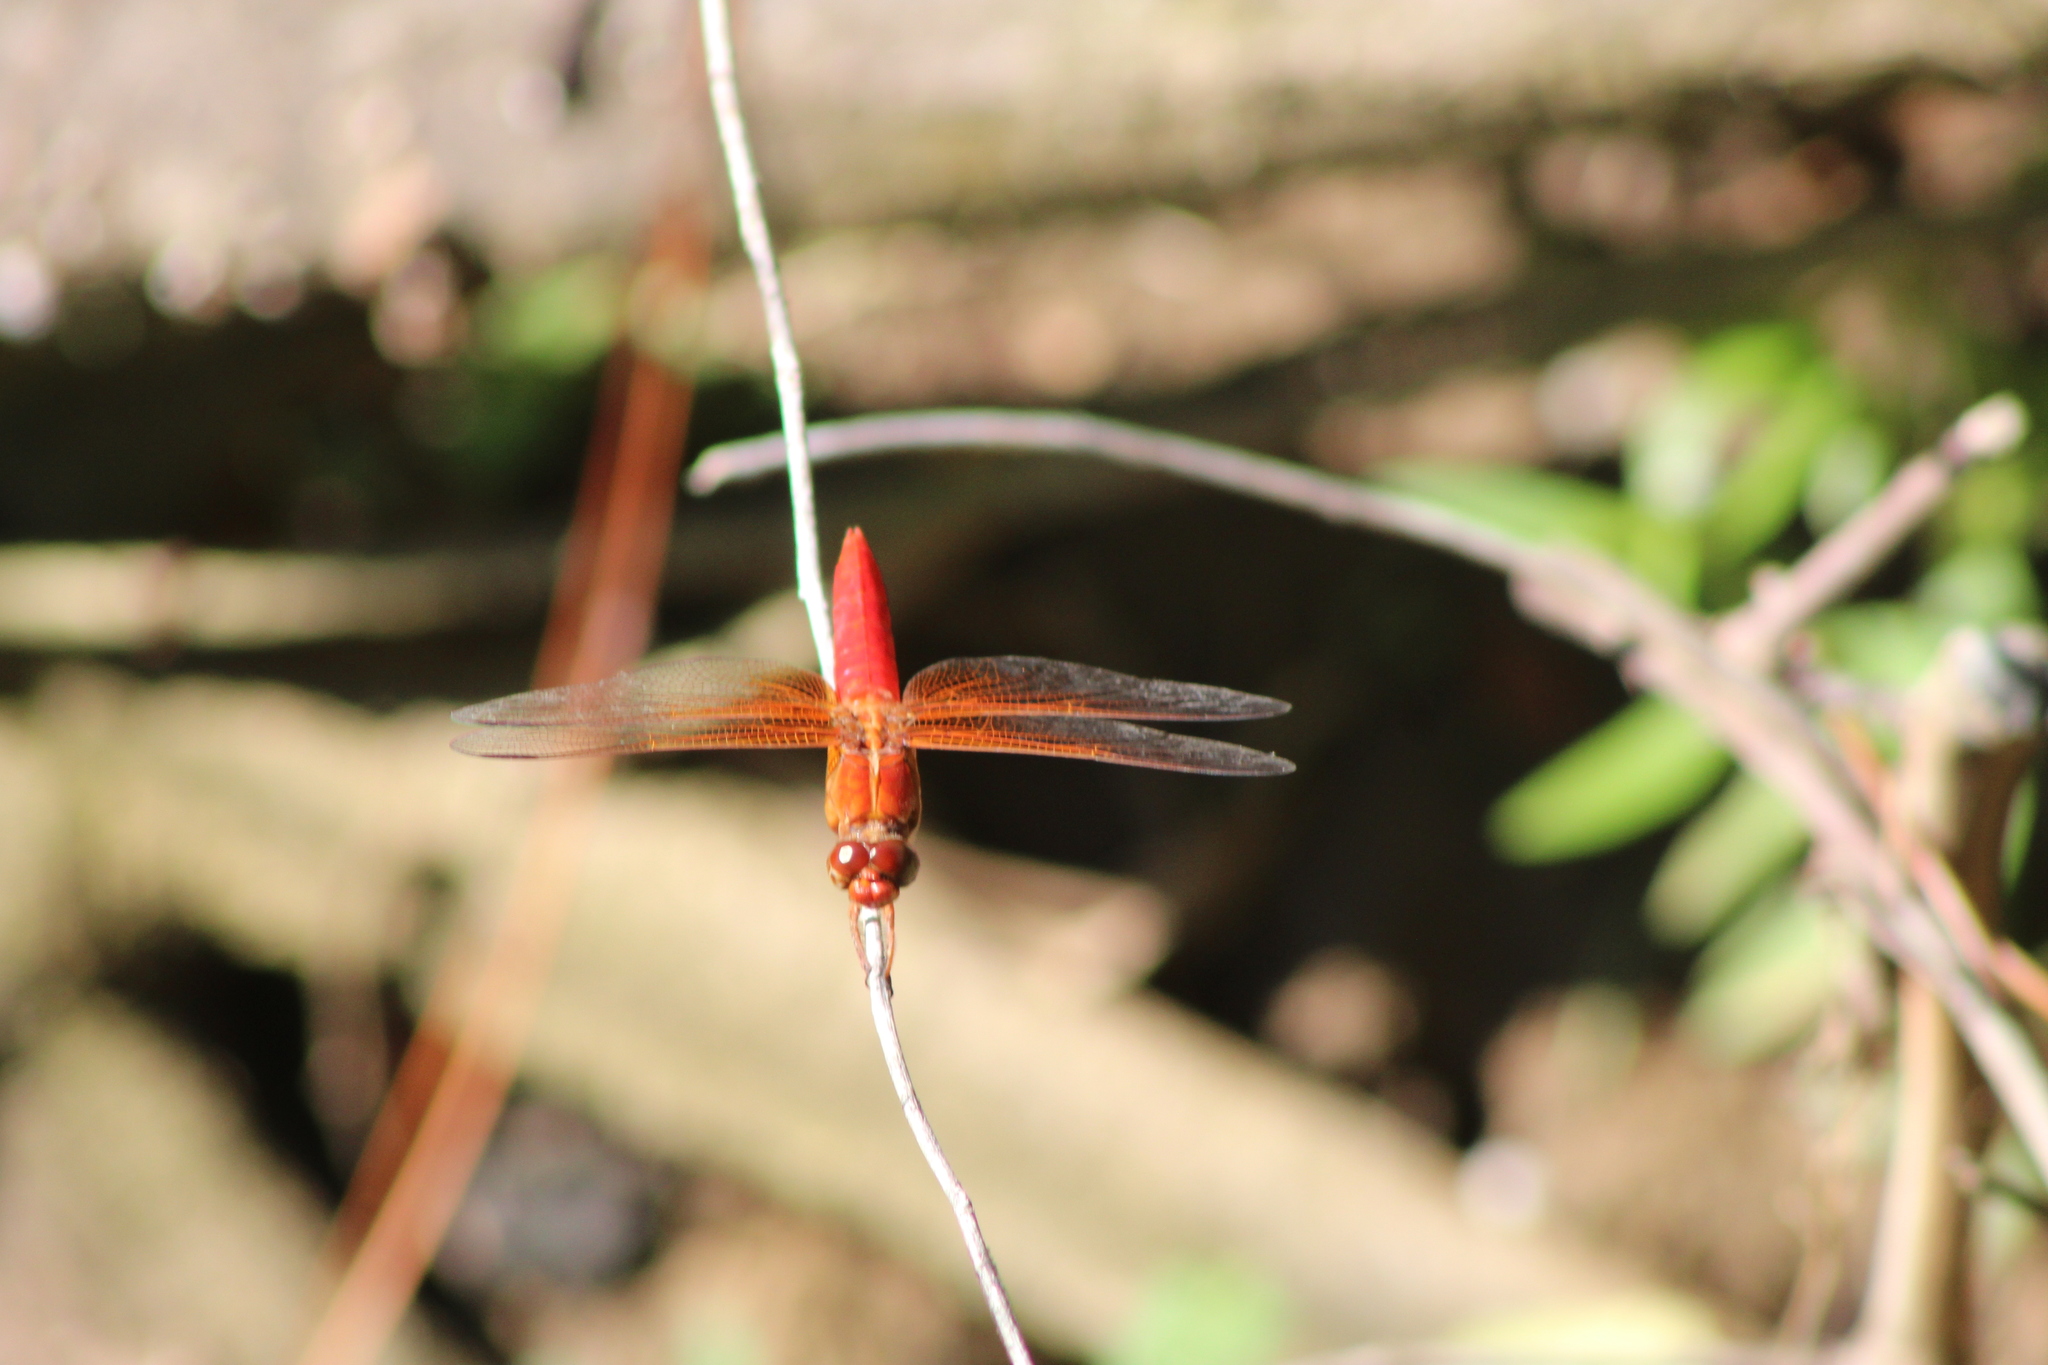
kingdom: Animalia
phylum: Arthropoda
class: Insecta
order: Odonata
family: Libellulidae
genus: Libellula
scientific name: Libellula croceipennis
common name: Neon skimmer
